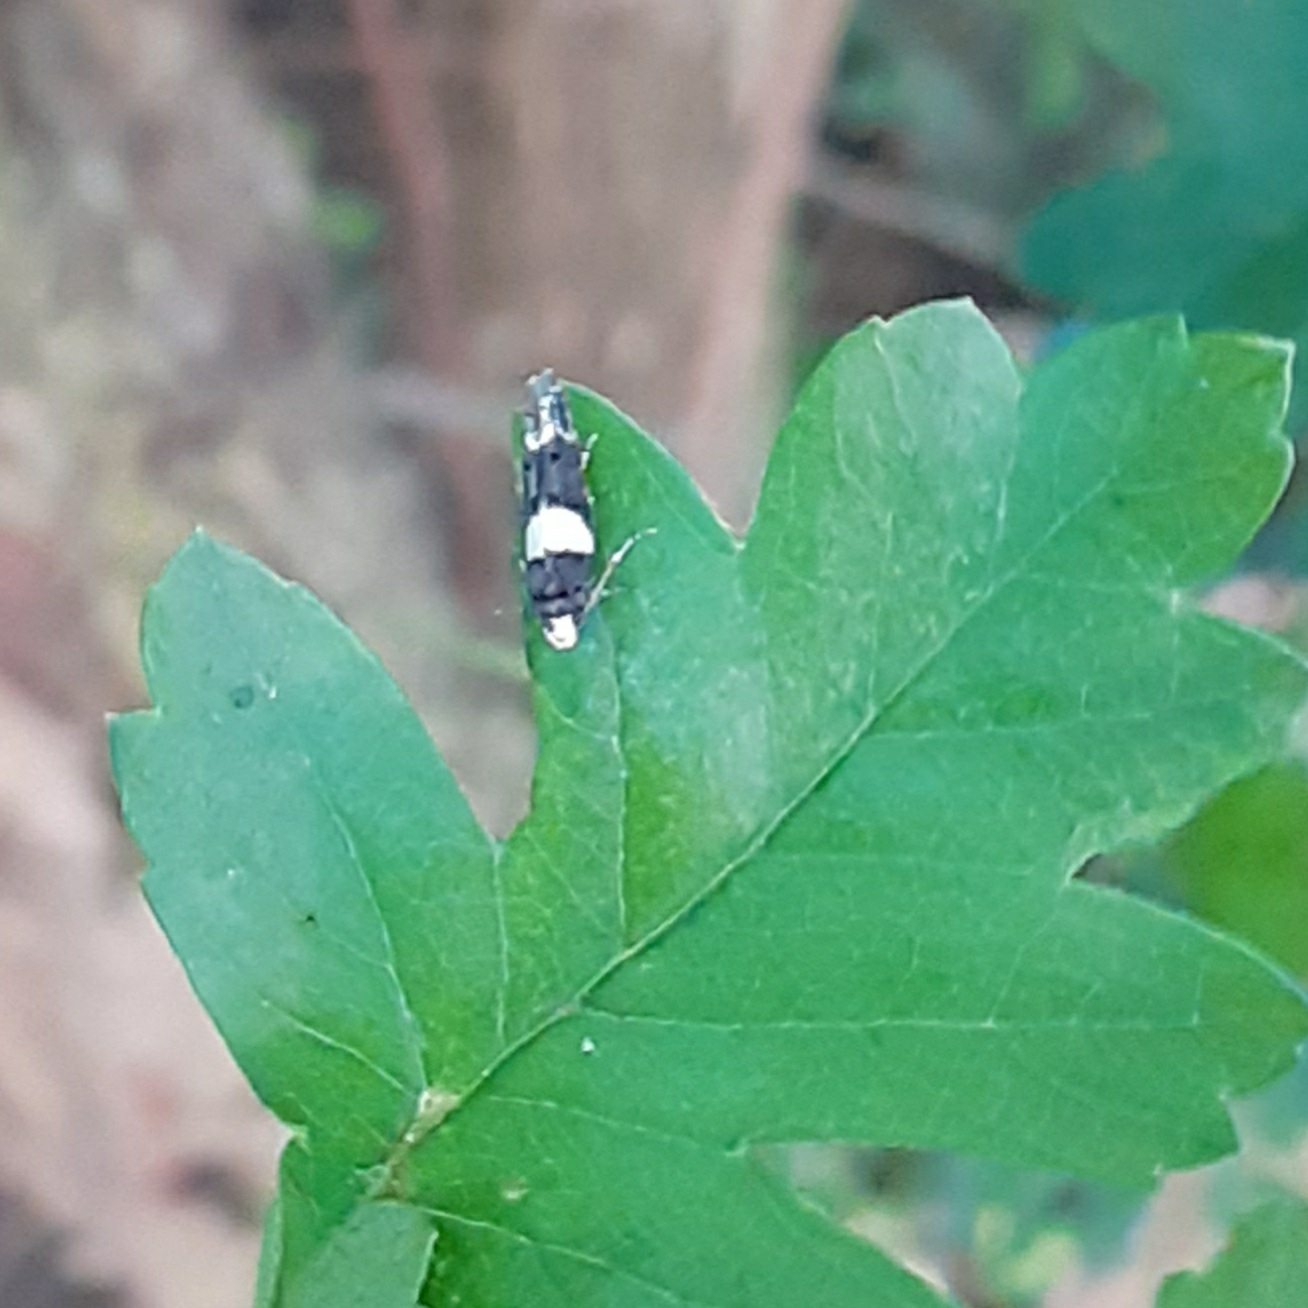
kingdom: Animalia
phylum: Arthropoda
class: Insecta
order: Lepidoptera
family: Gelechiidae
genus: Recurvaria
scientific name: Recurvaria leucatella
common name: White-barred groundling
